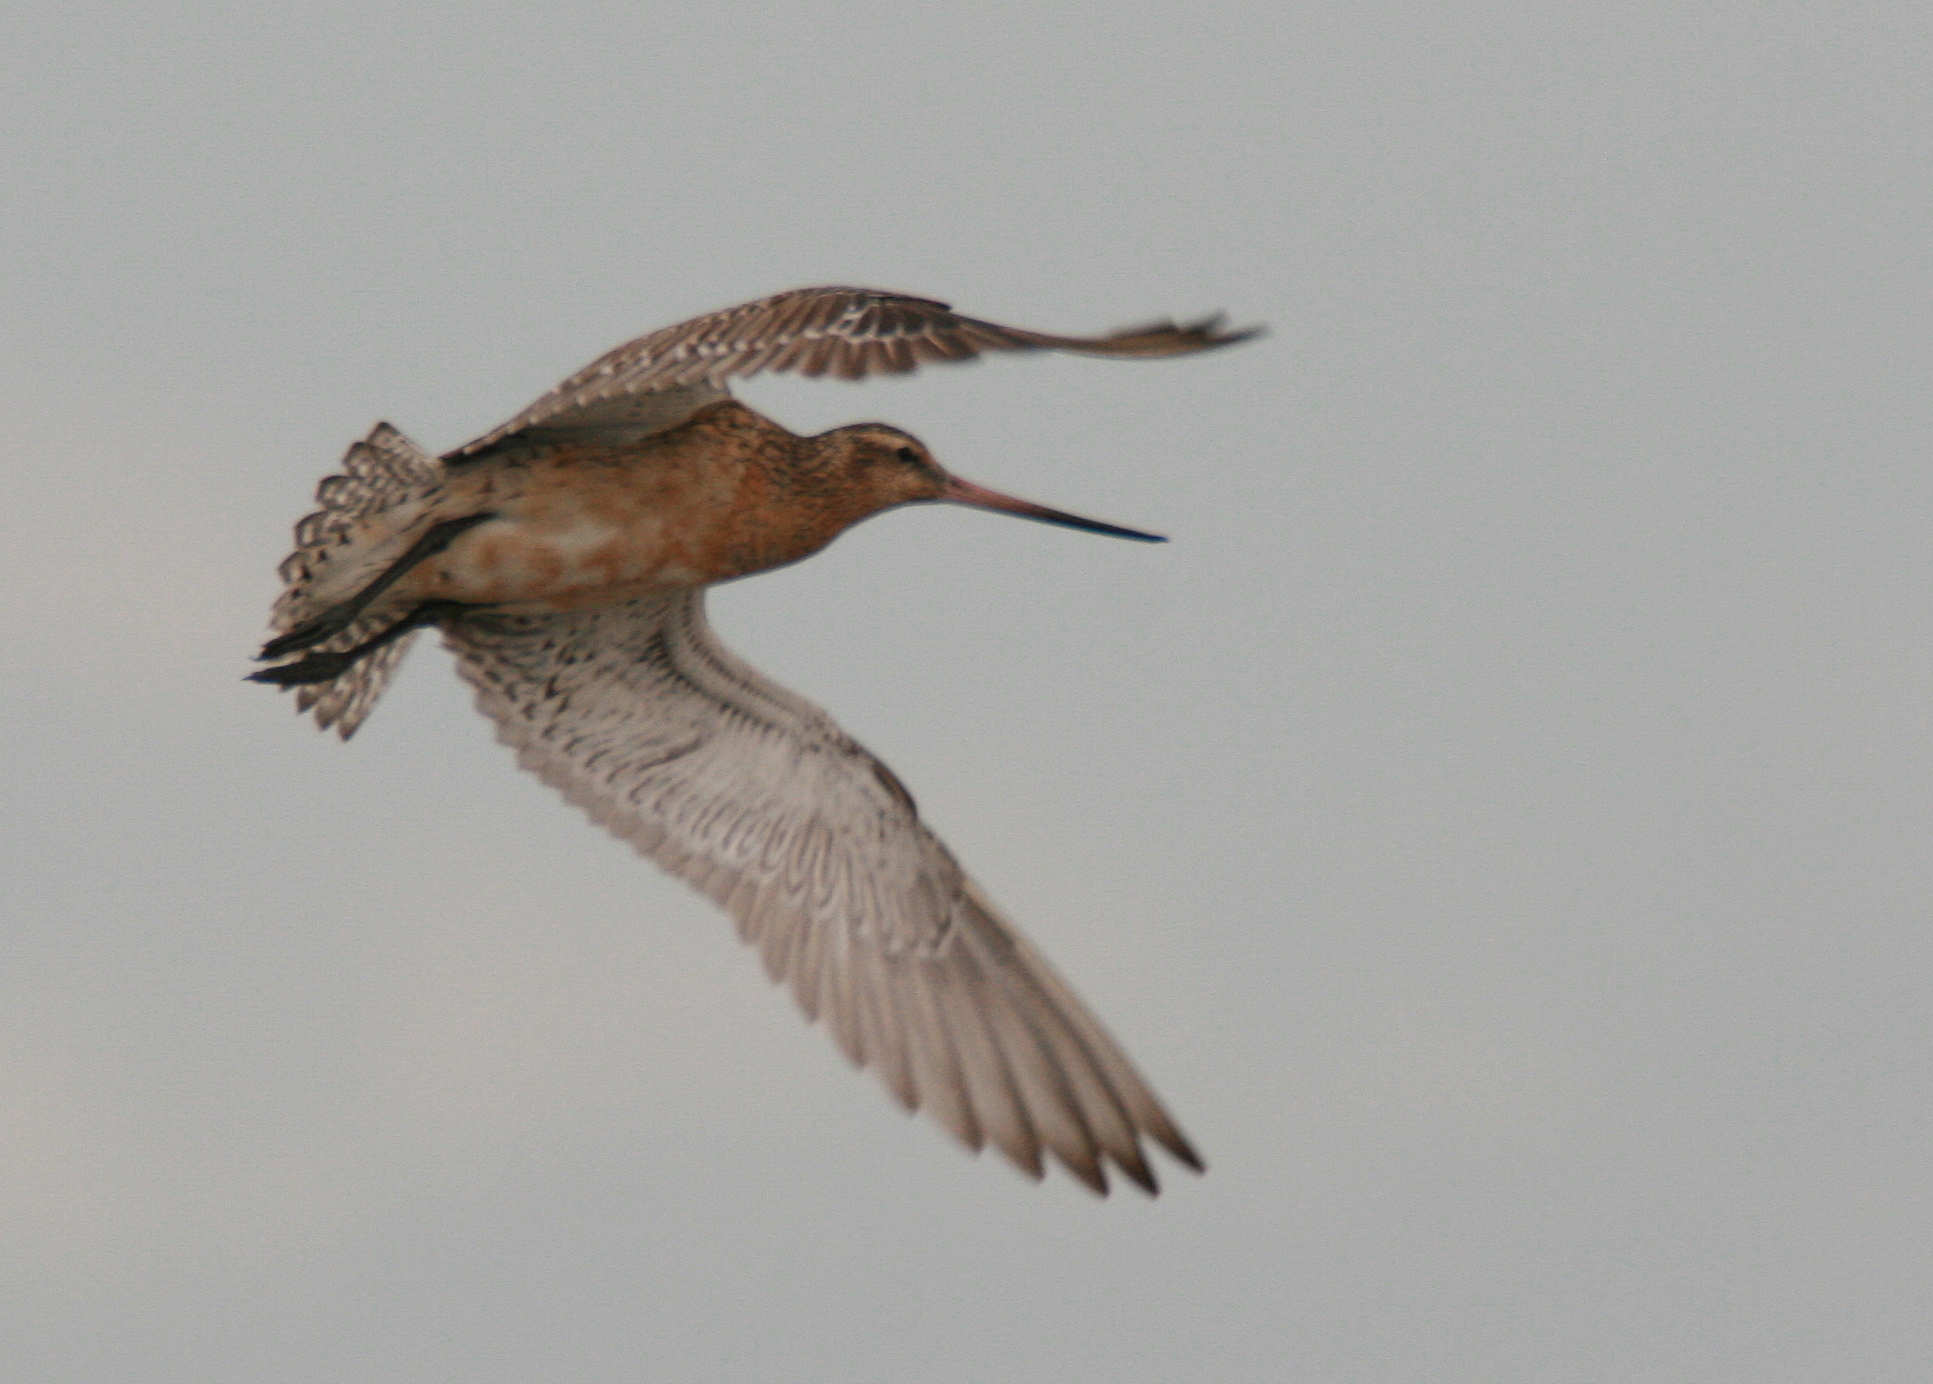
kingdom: Animalia
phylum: Chordata
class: Aves
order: Charadriiformes
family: Scolopacidae
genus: Limosa
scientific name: Limosa lapponica
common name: Bar-tailed godwit
